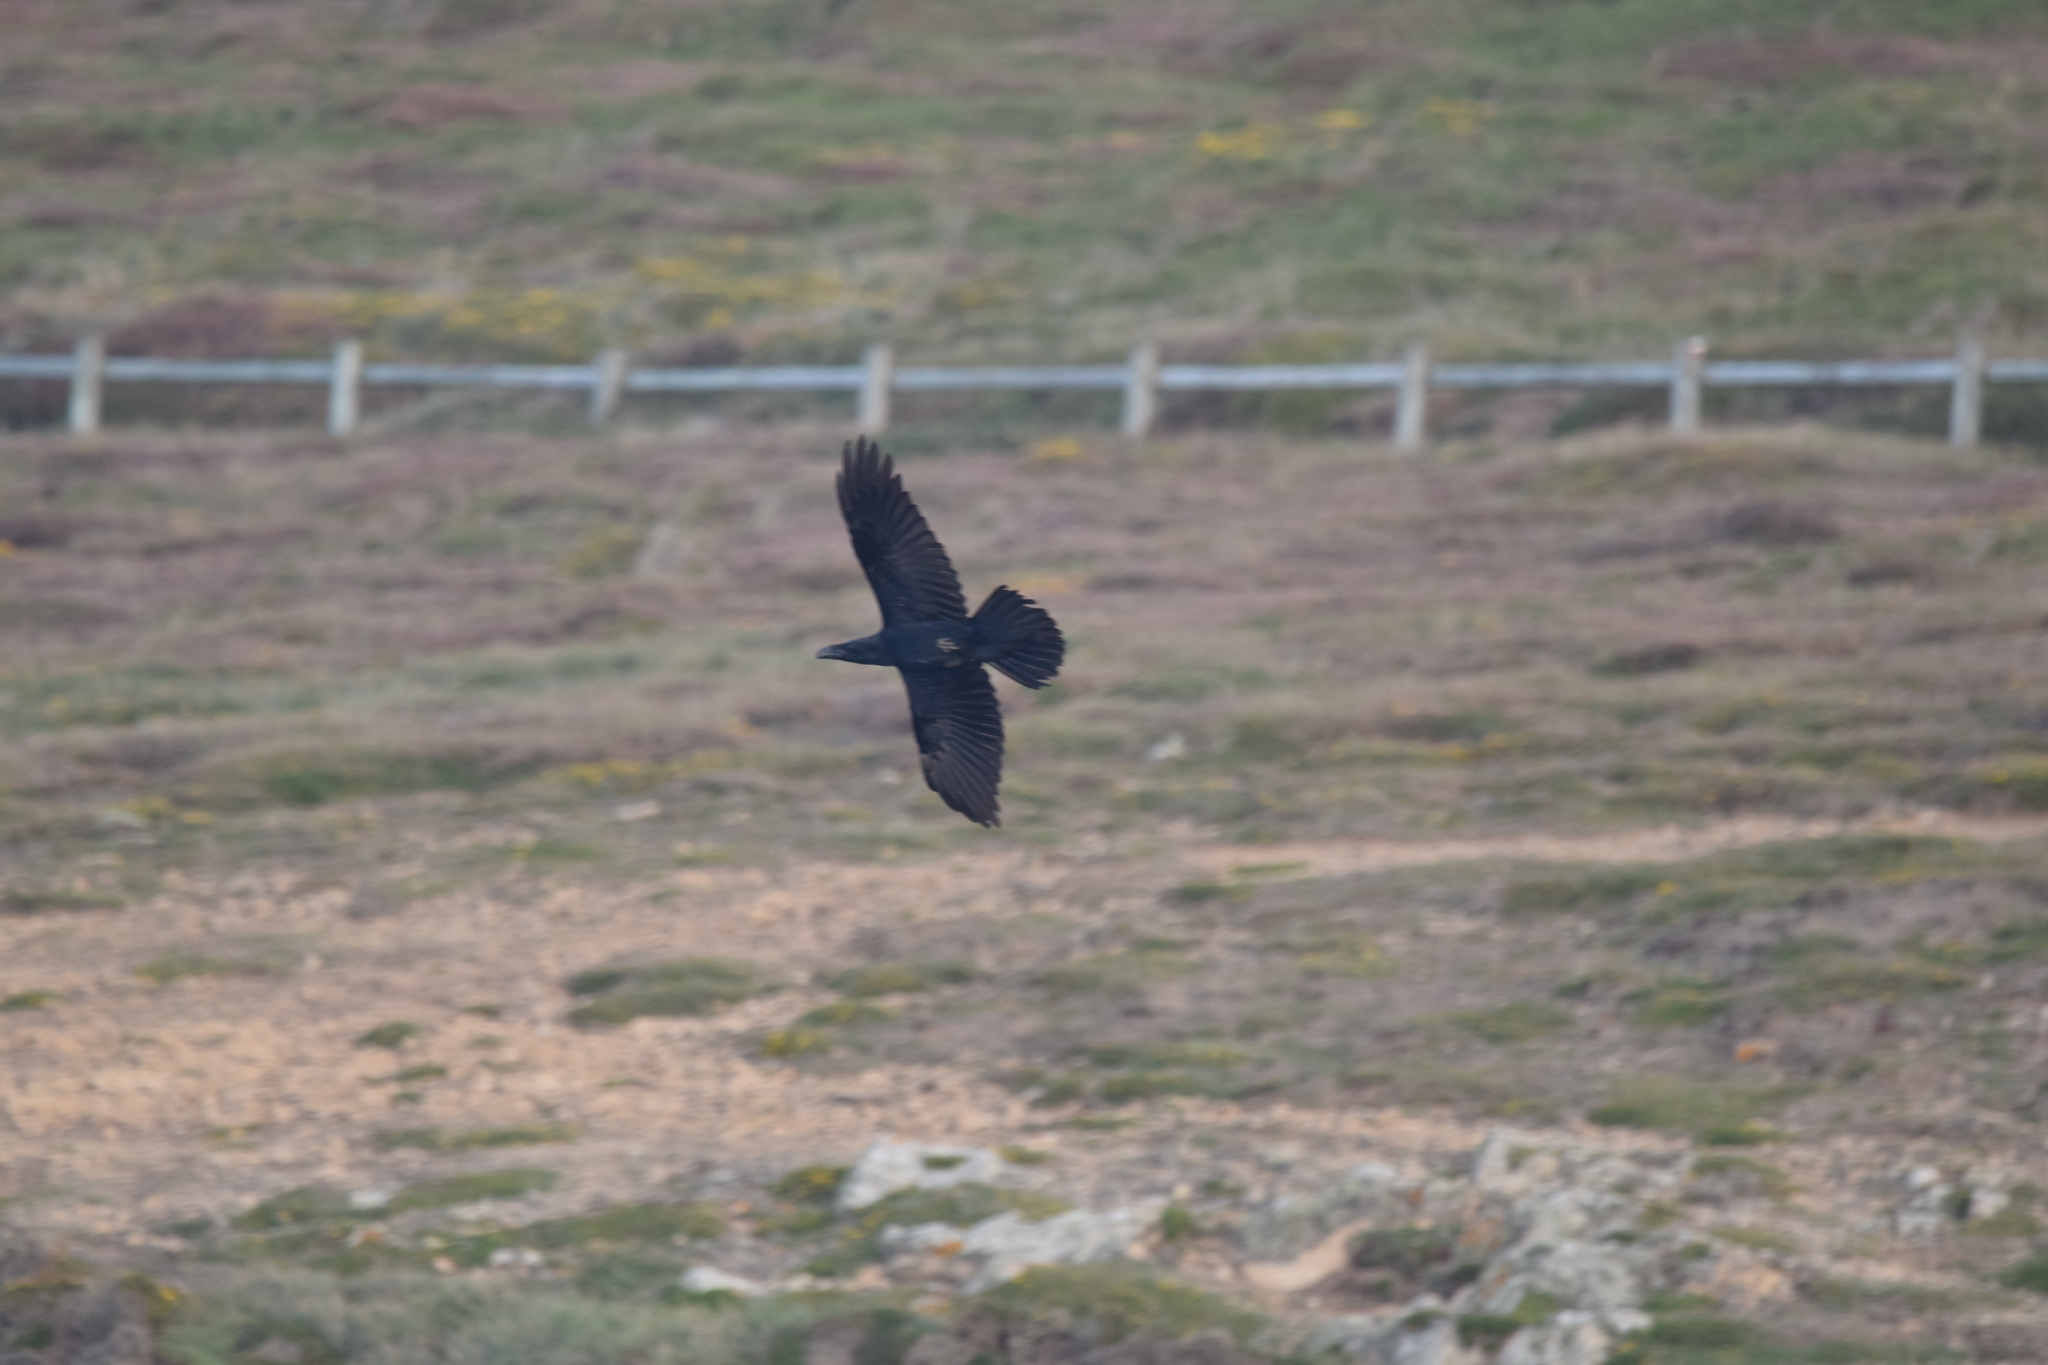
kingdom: Animalia
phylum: Chordata
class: Aves
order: Passeriformes
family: Corvidae
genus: Corvus
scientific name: Corvus corax
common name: Common raven
